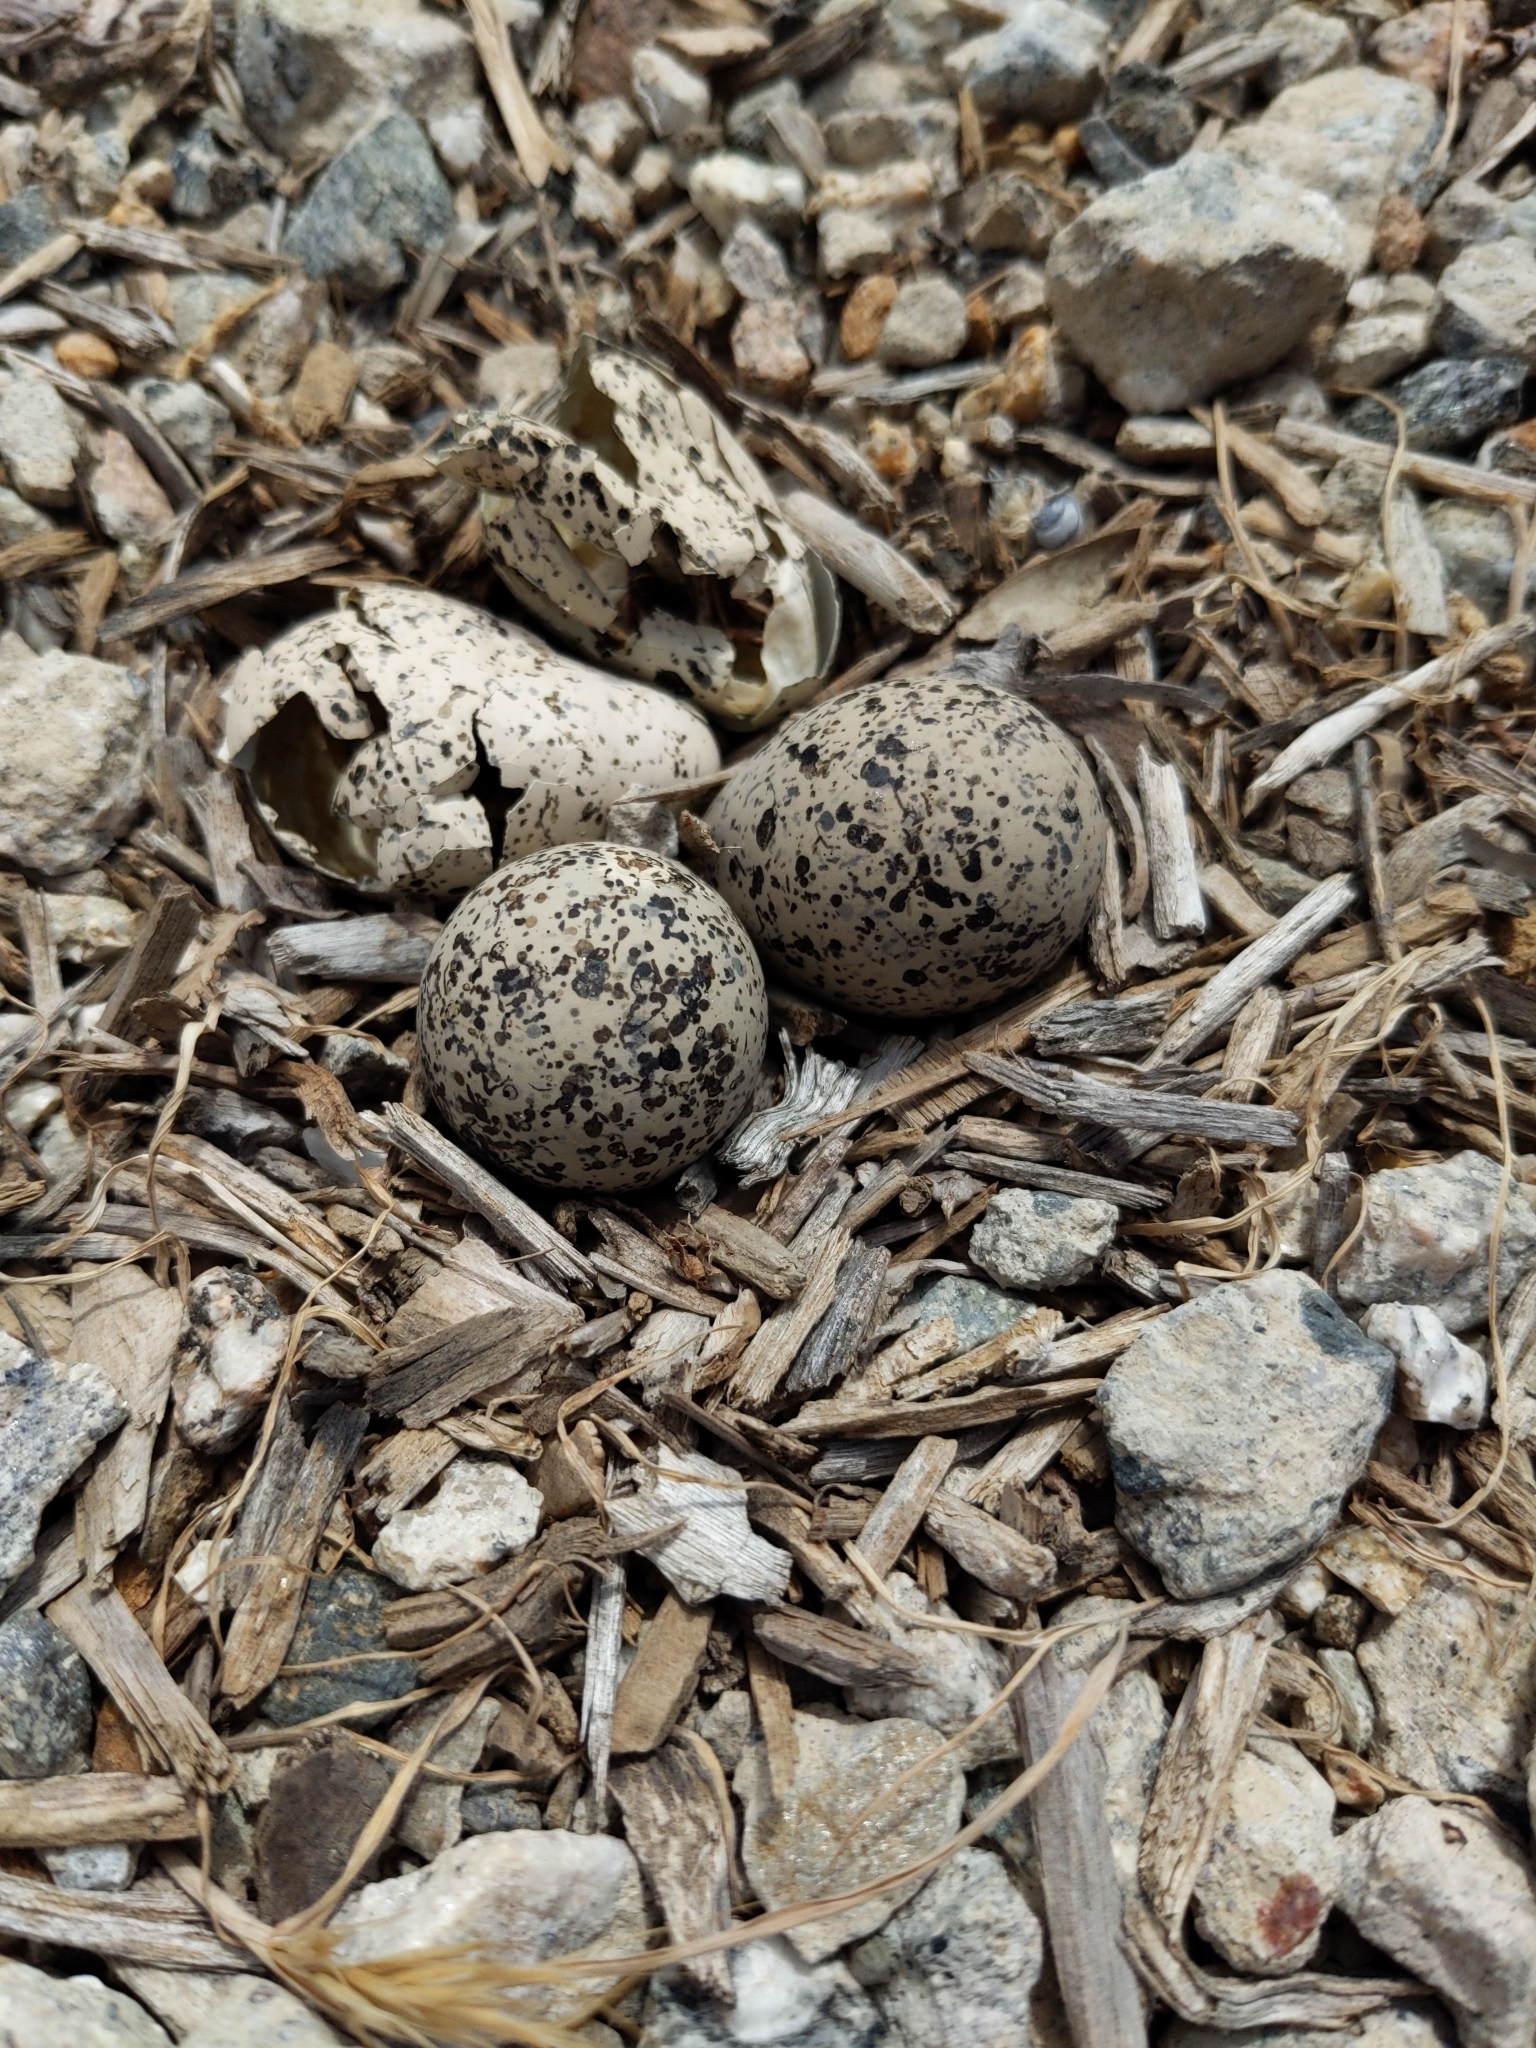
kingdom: Animalia
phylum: Chordata
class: Aves
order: Charadriiformes
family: Charadriidae
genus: Charadrius
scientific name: Charadrius vociferus
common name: Killdeer
